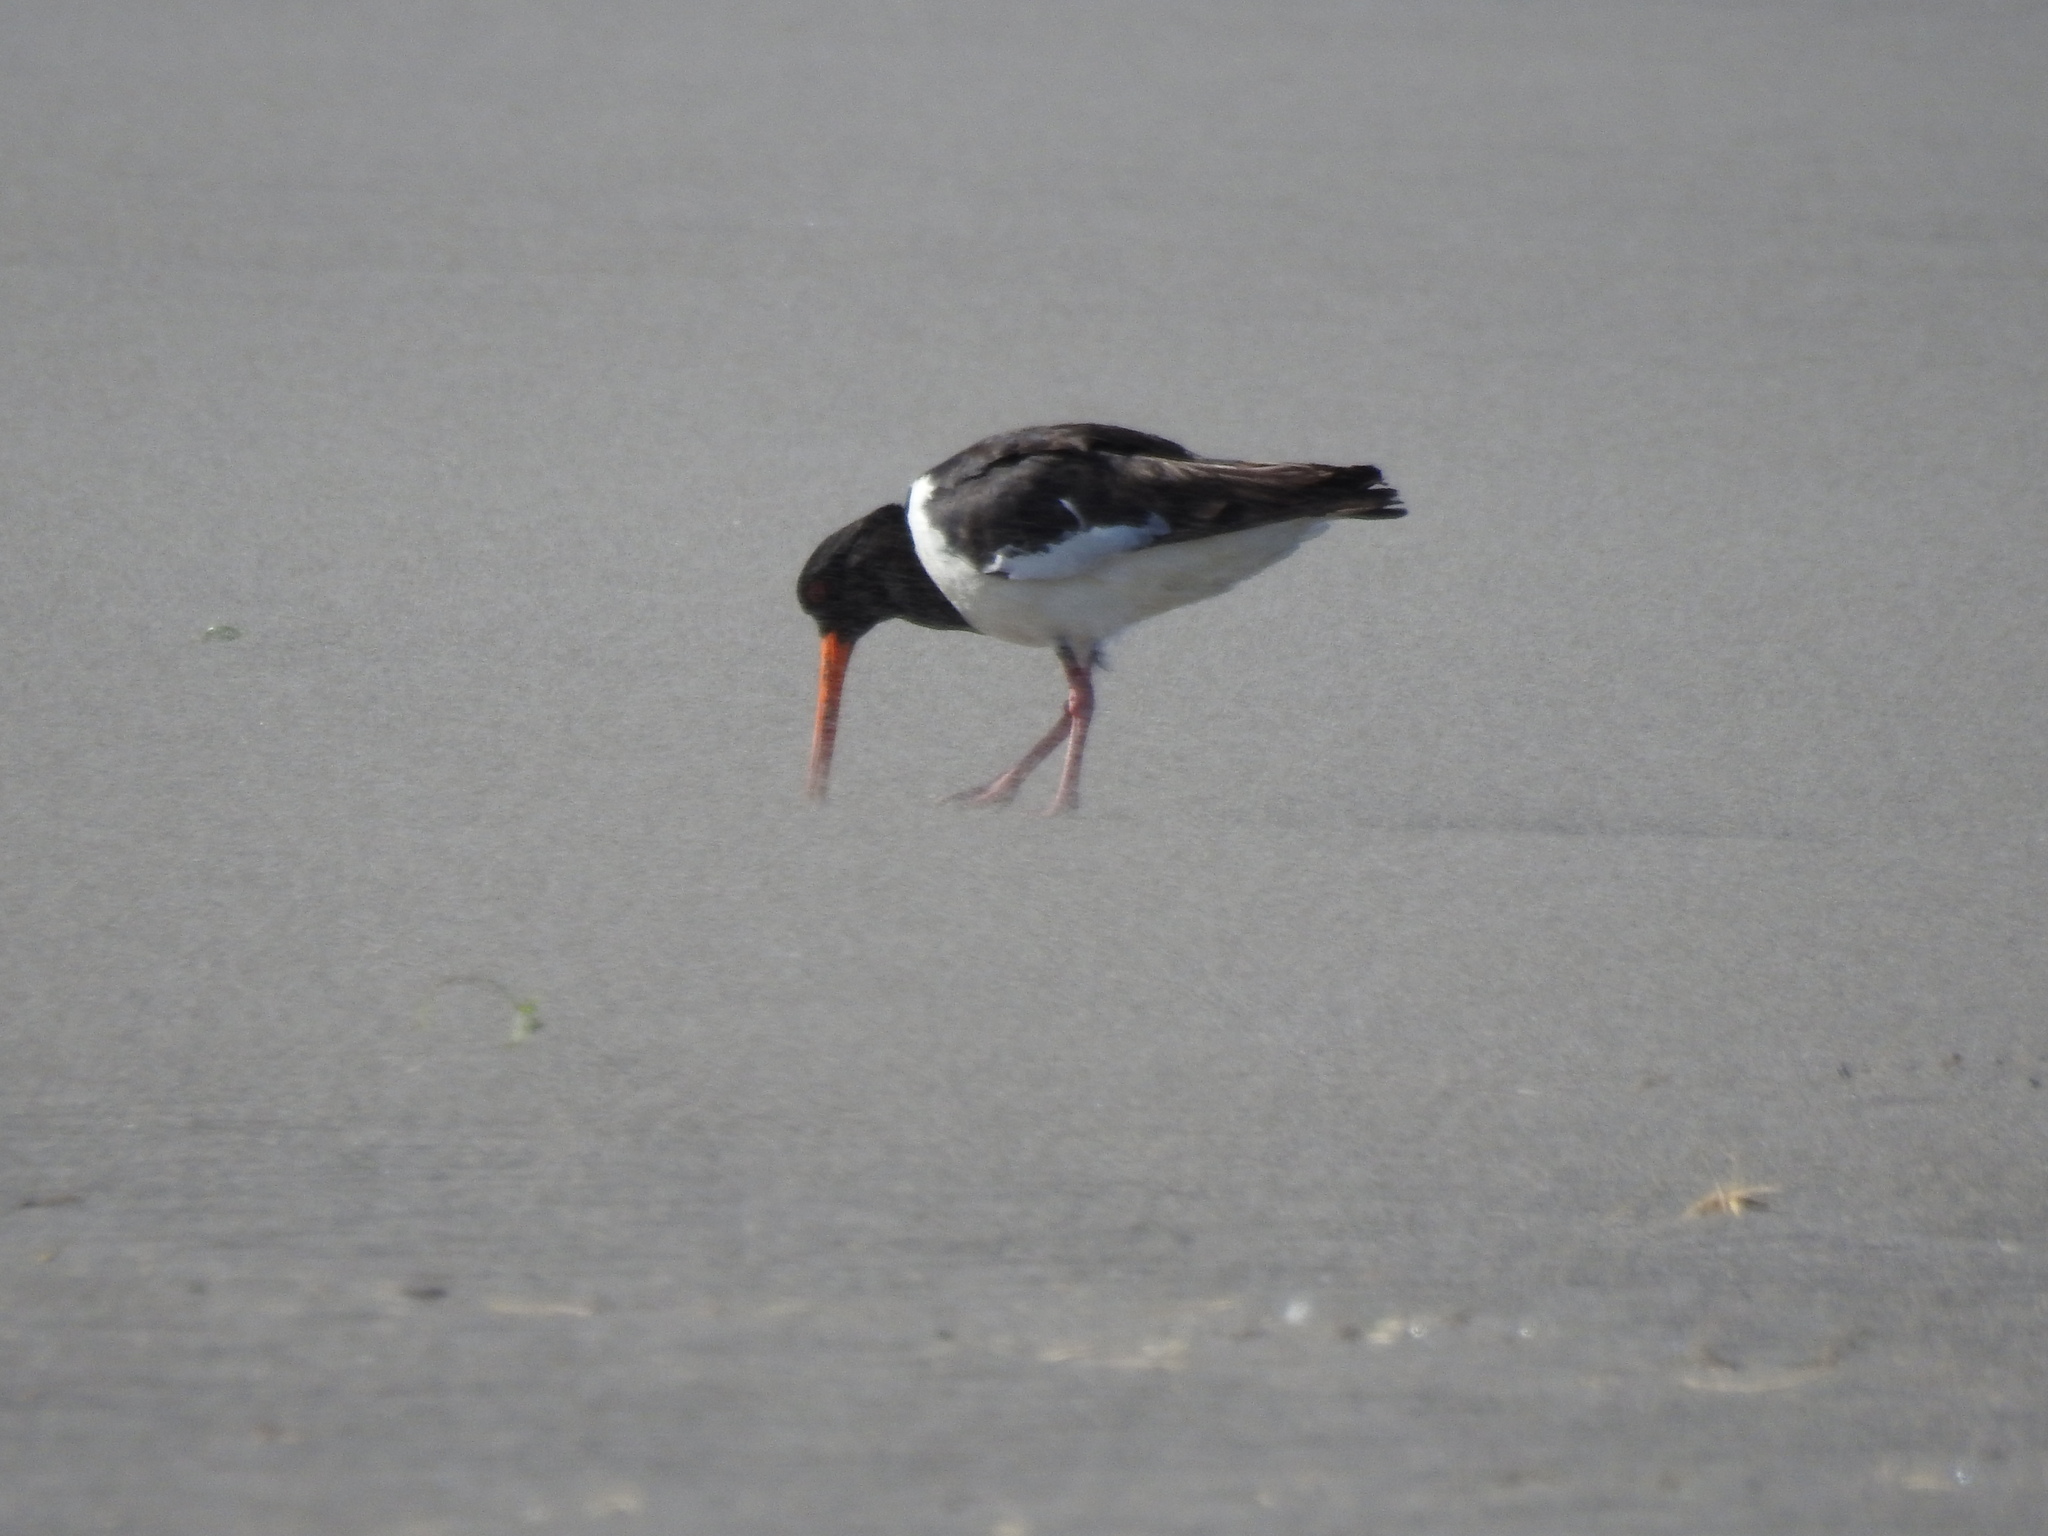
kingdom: Animalia
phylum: Chordata
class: Aves
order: Charadriiformes
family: Haematopodidae
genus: Haematopus
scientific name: Haematopus finschi
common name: South island oystercatcher
